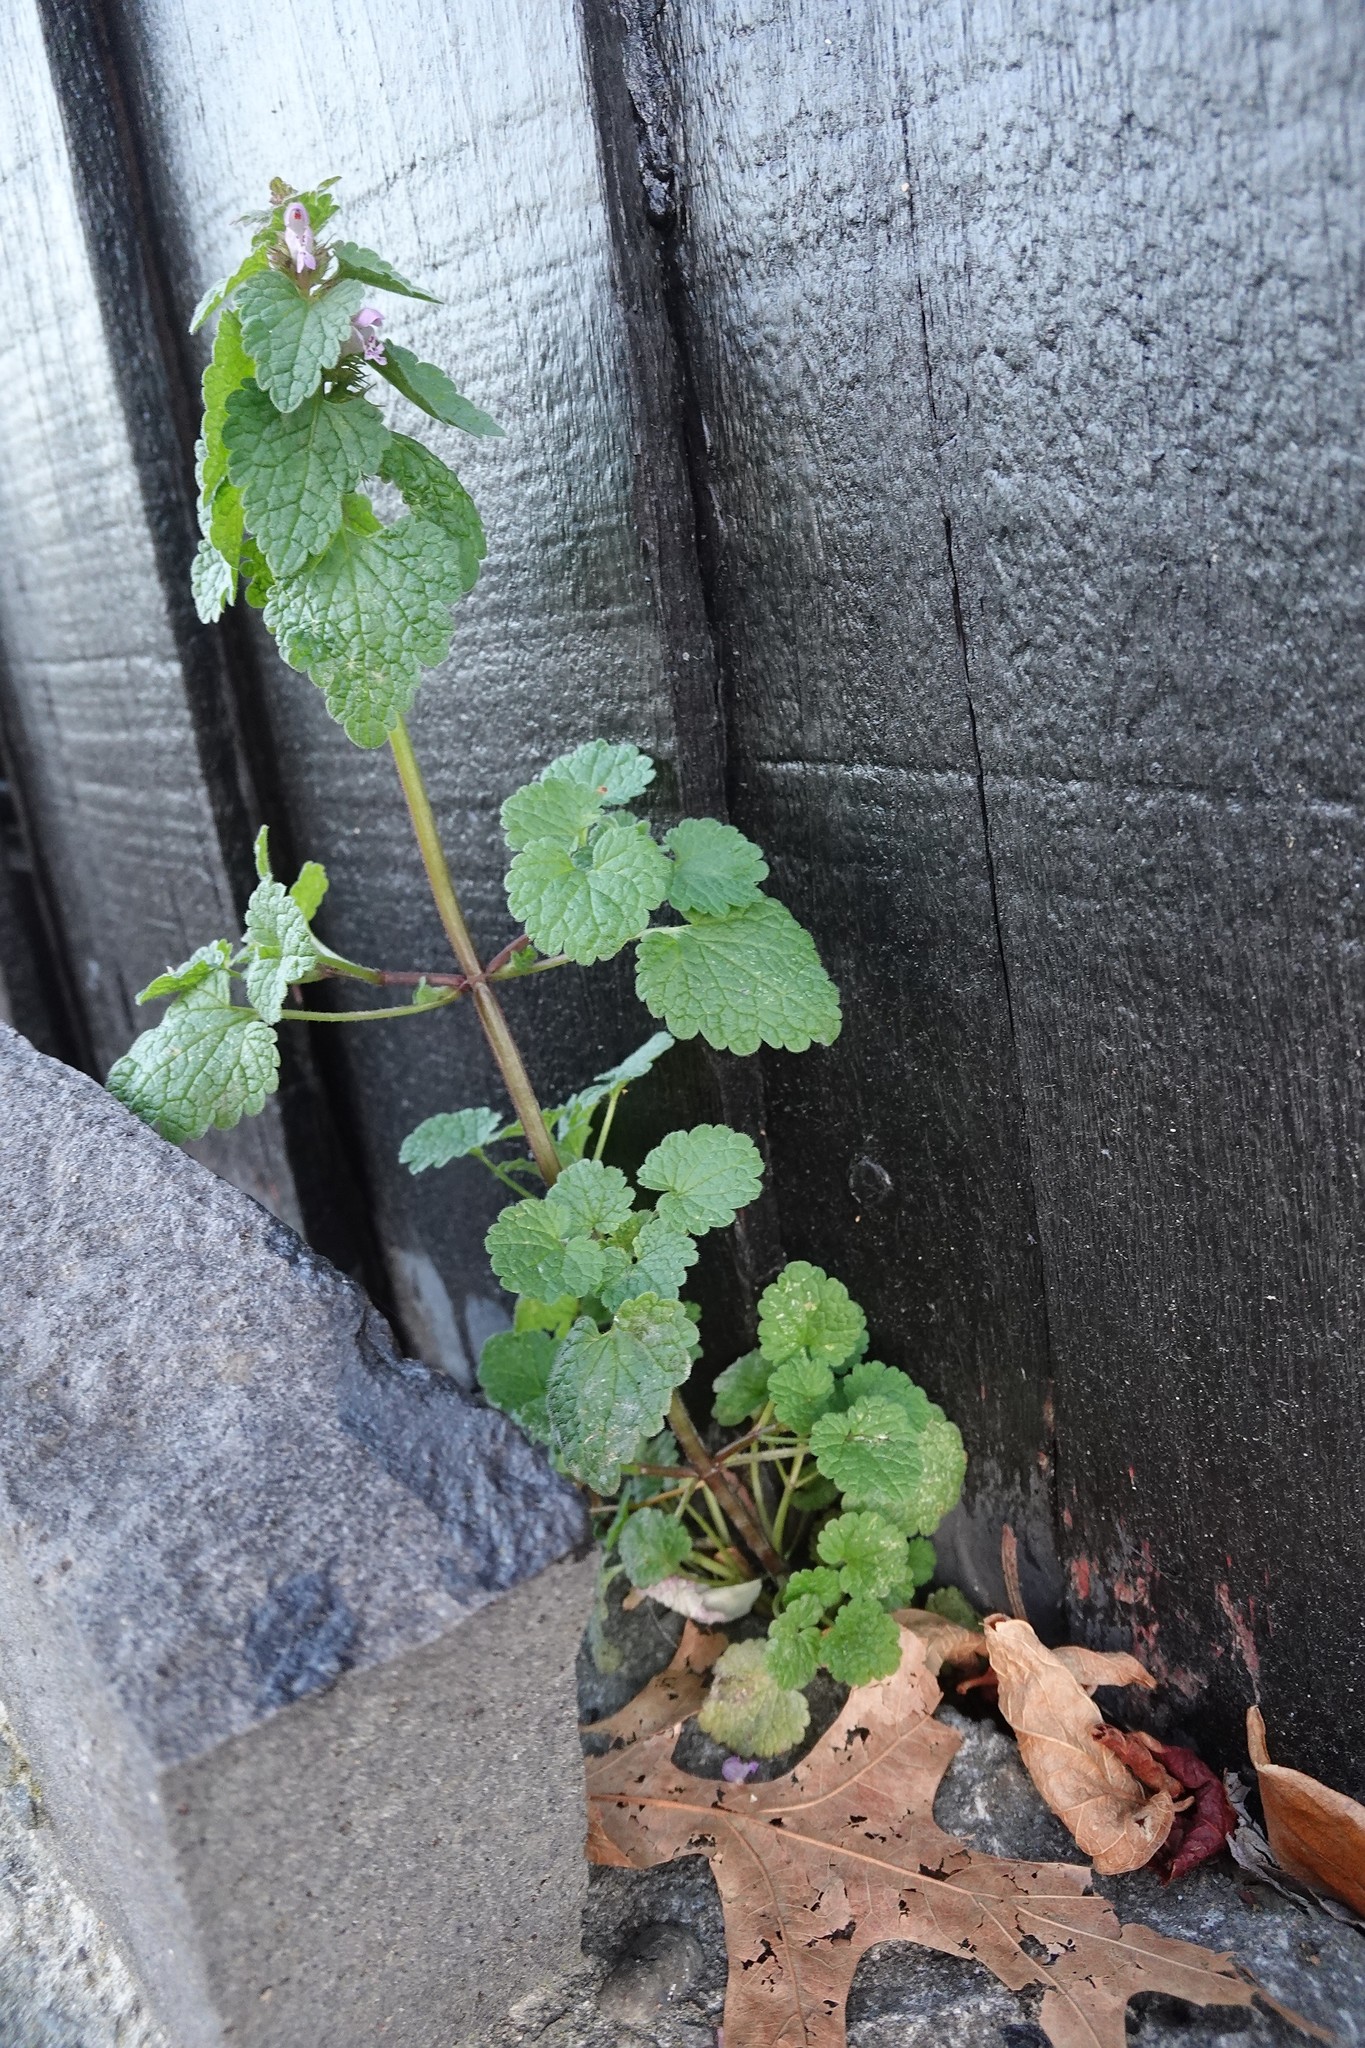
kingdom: Plantae
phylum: Tracheophyta
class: Magnoliopsida
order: Lamiales
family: Lamiaceae
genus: Lamium
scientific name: Lamium purpureum
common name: Red dead-nettle
